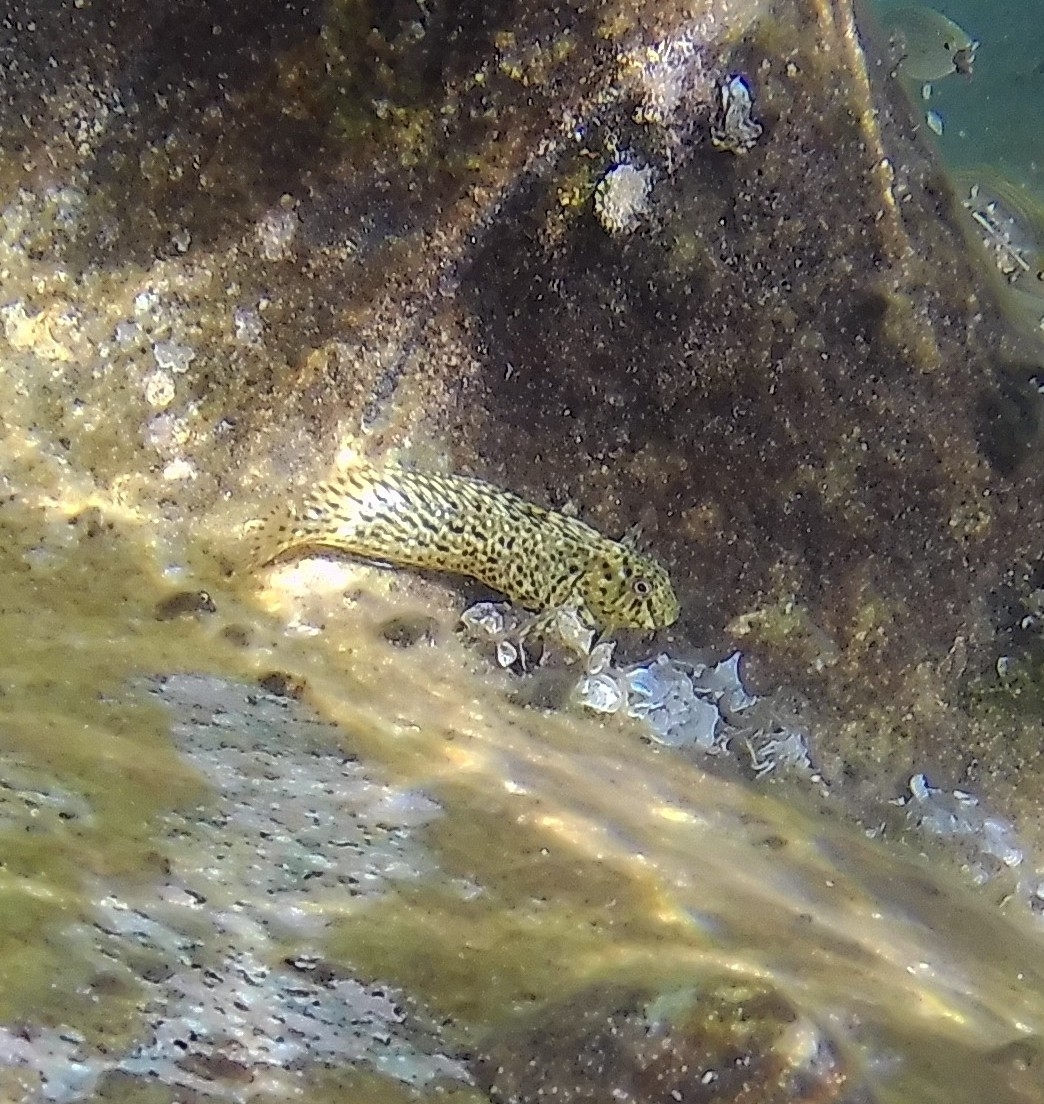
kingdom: Animalia
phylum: Chordata
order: Perciformes
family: Blenniidae
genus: Parablennius
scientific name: Parablennius sanguinolentus
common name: Black sea blenny
